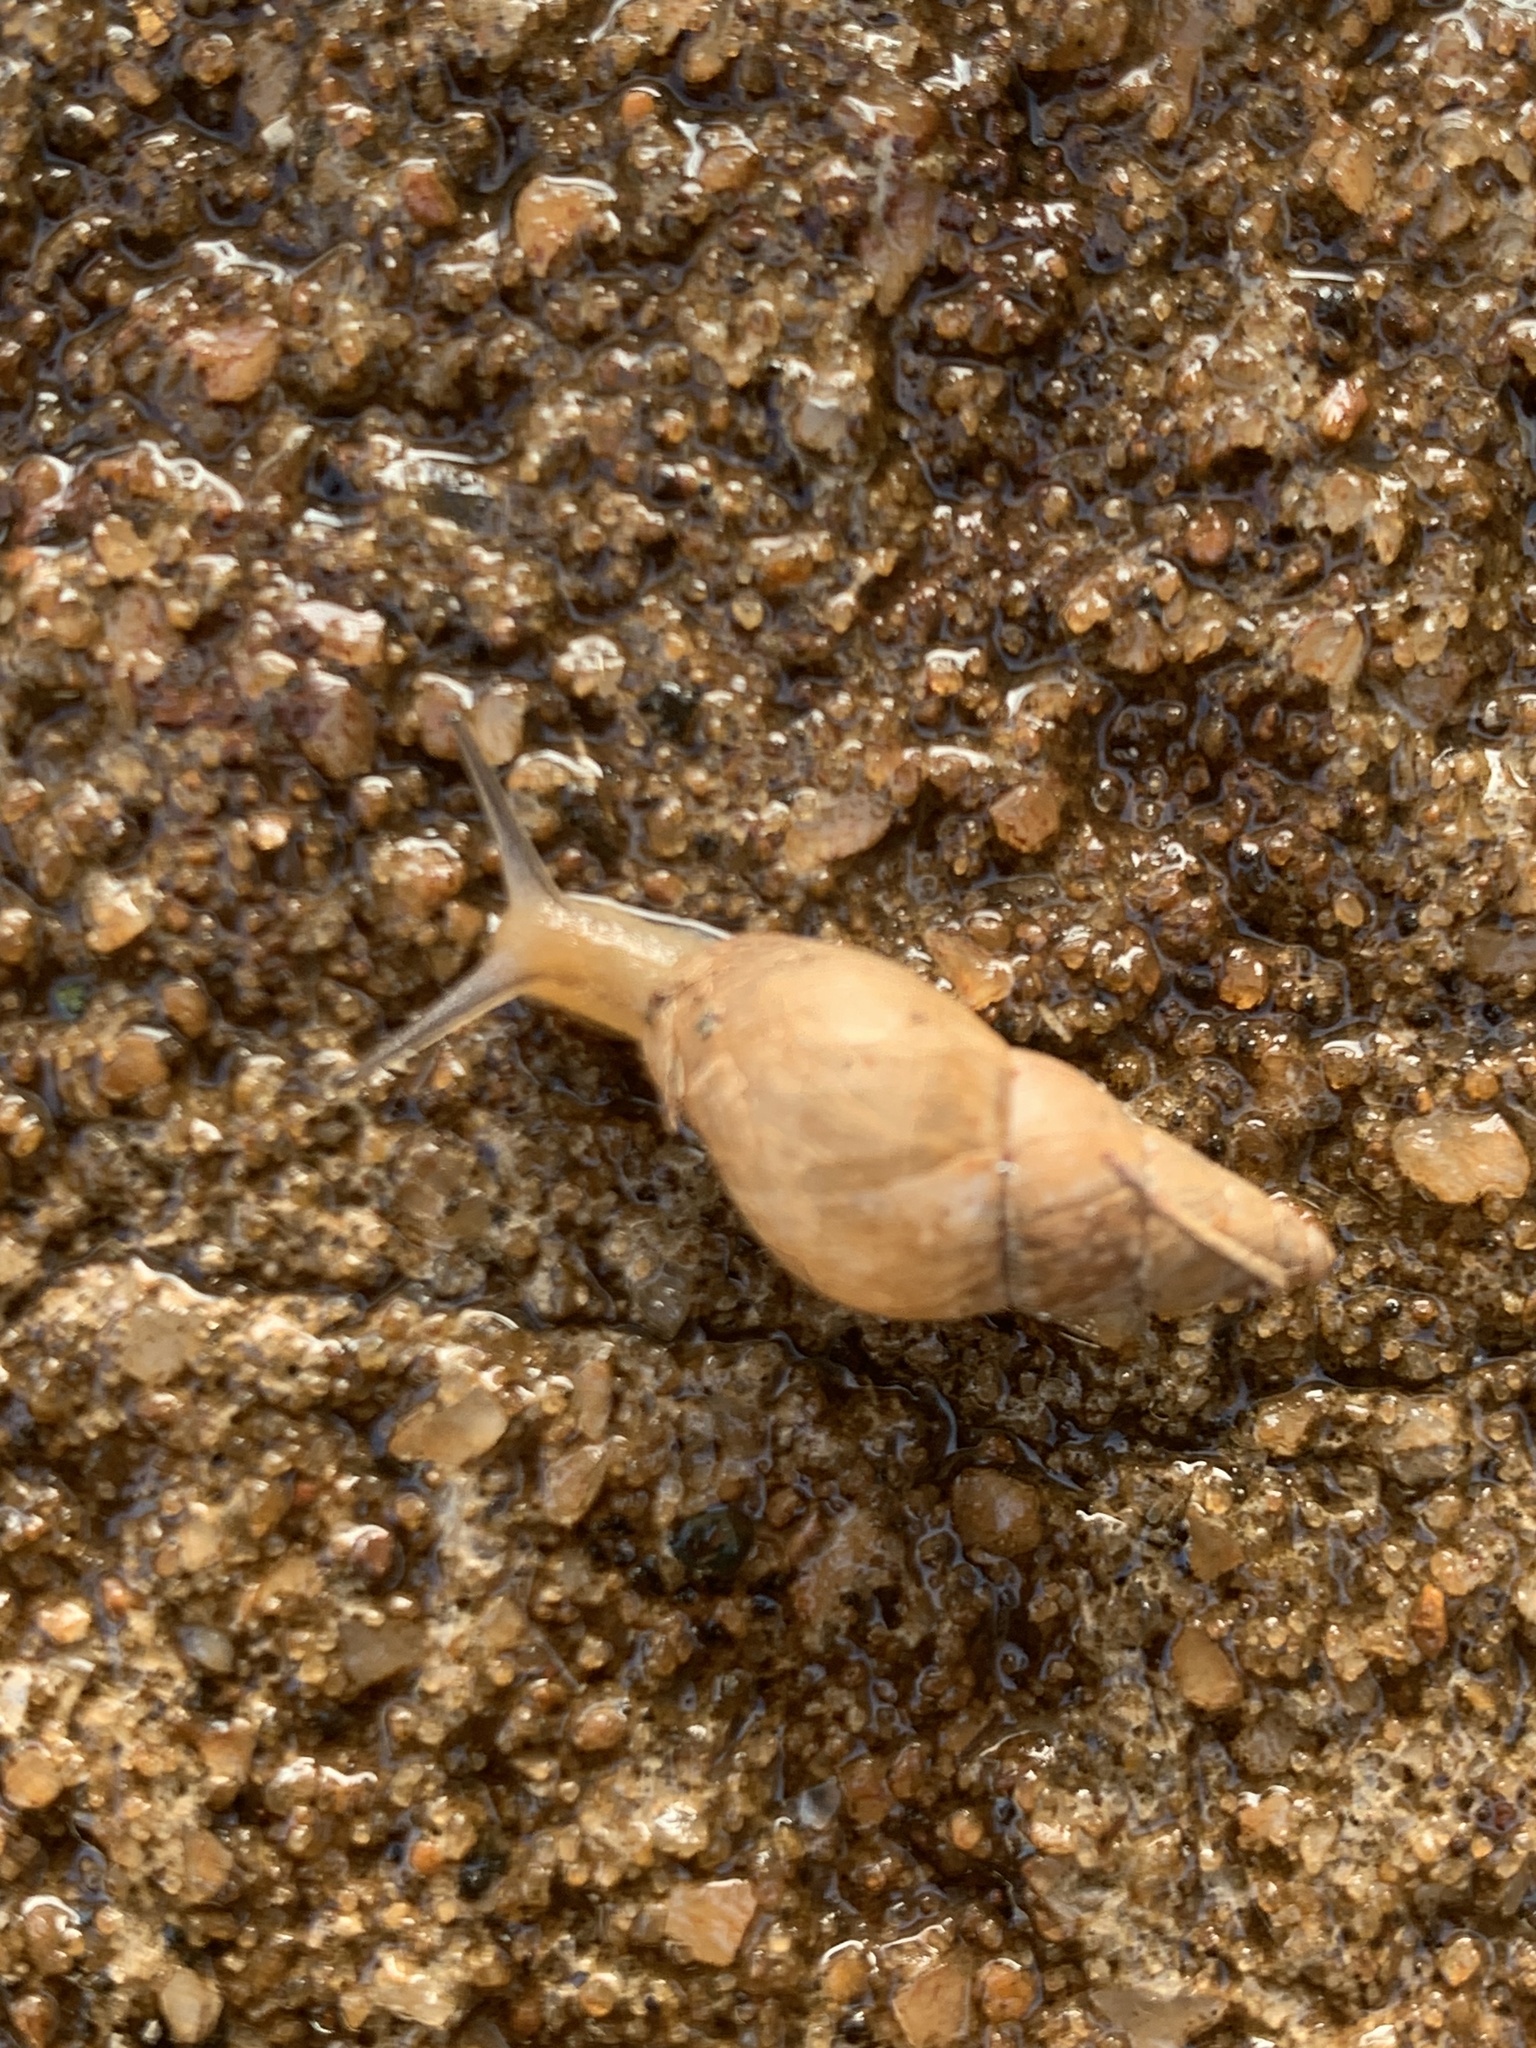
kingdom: Animalia
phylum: Mollusca
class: Gastropoda
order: Stylommatophora
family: Bulimulidae
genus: Bulimulus
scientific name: Bulimulus bonariensis
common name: Snail
